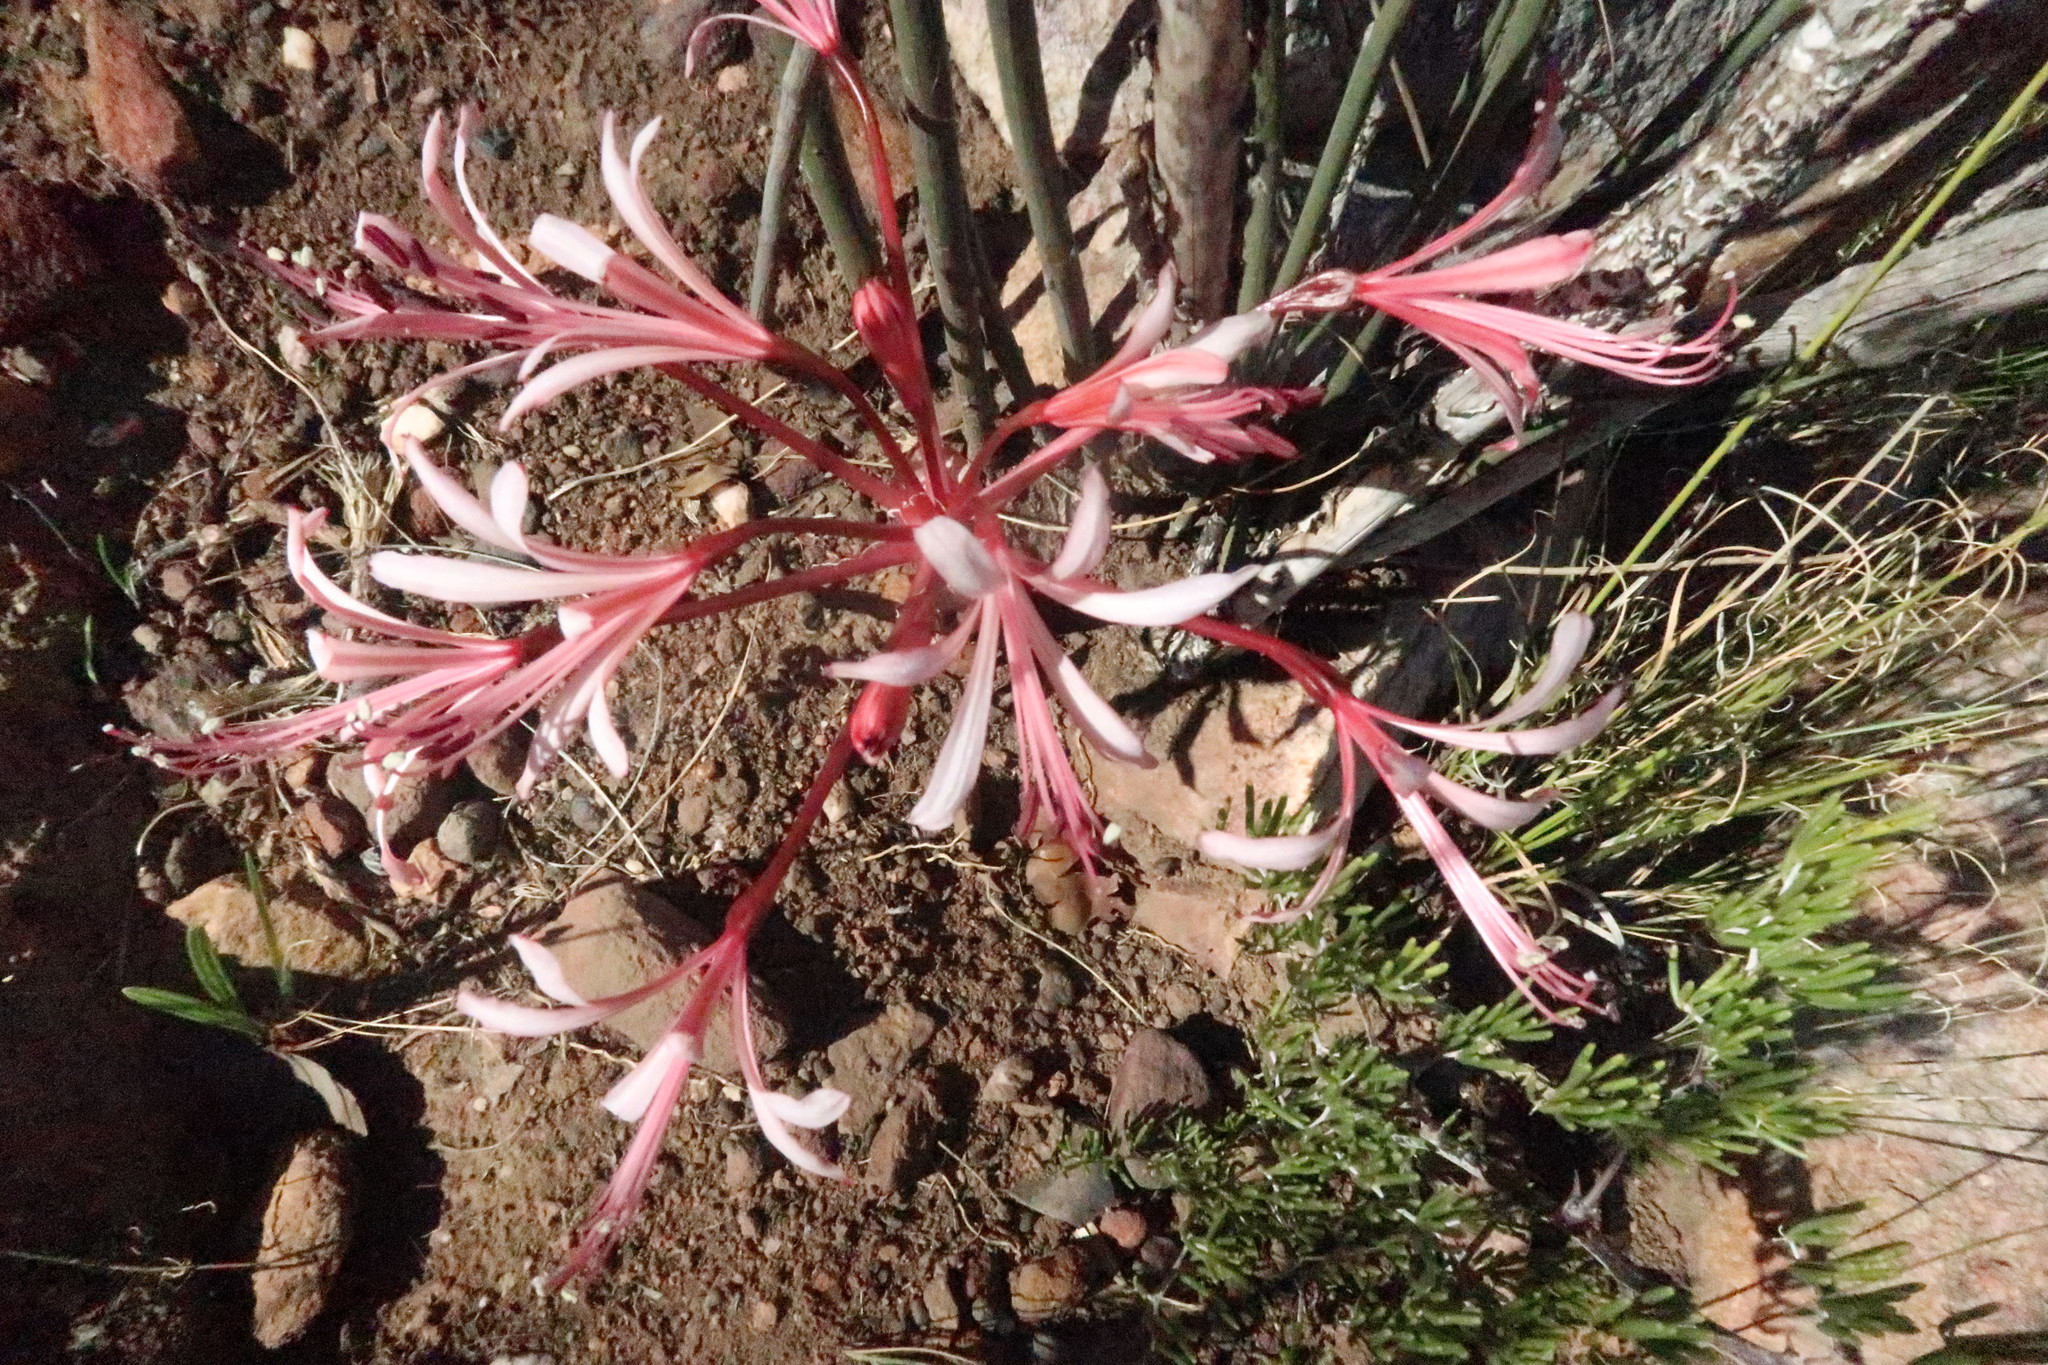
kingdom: Plantae
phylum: Tracheophyta
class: Liliopsida
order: Asparagales
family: Amaryllidaceae
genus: Brunsvigia
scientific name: Brunsvigia nervosa
